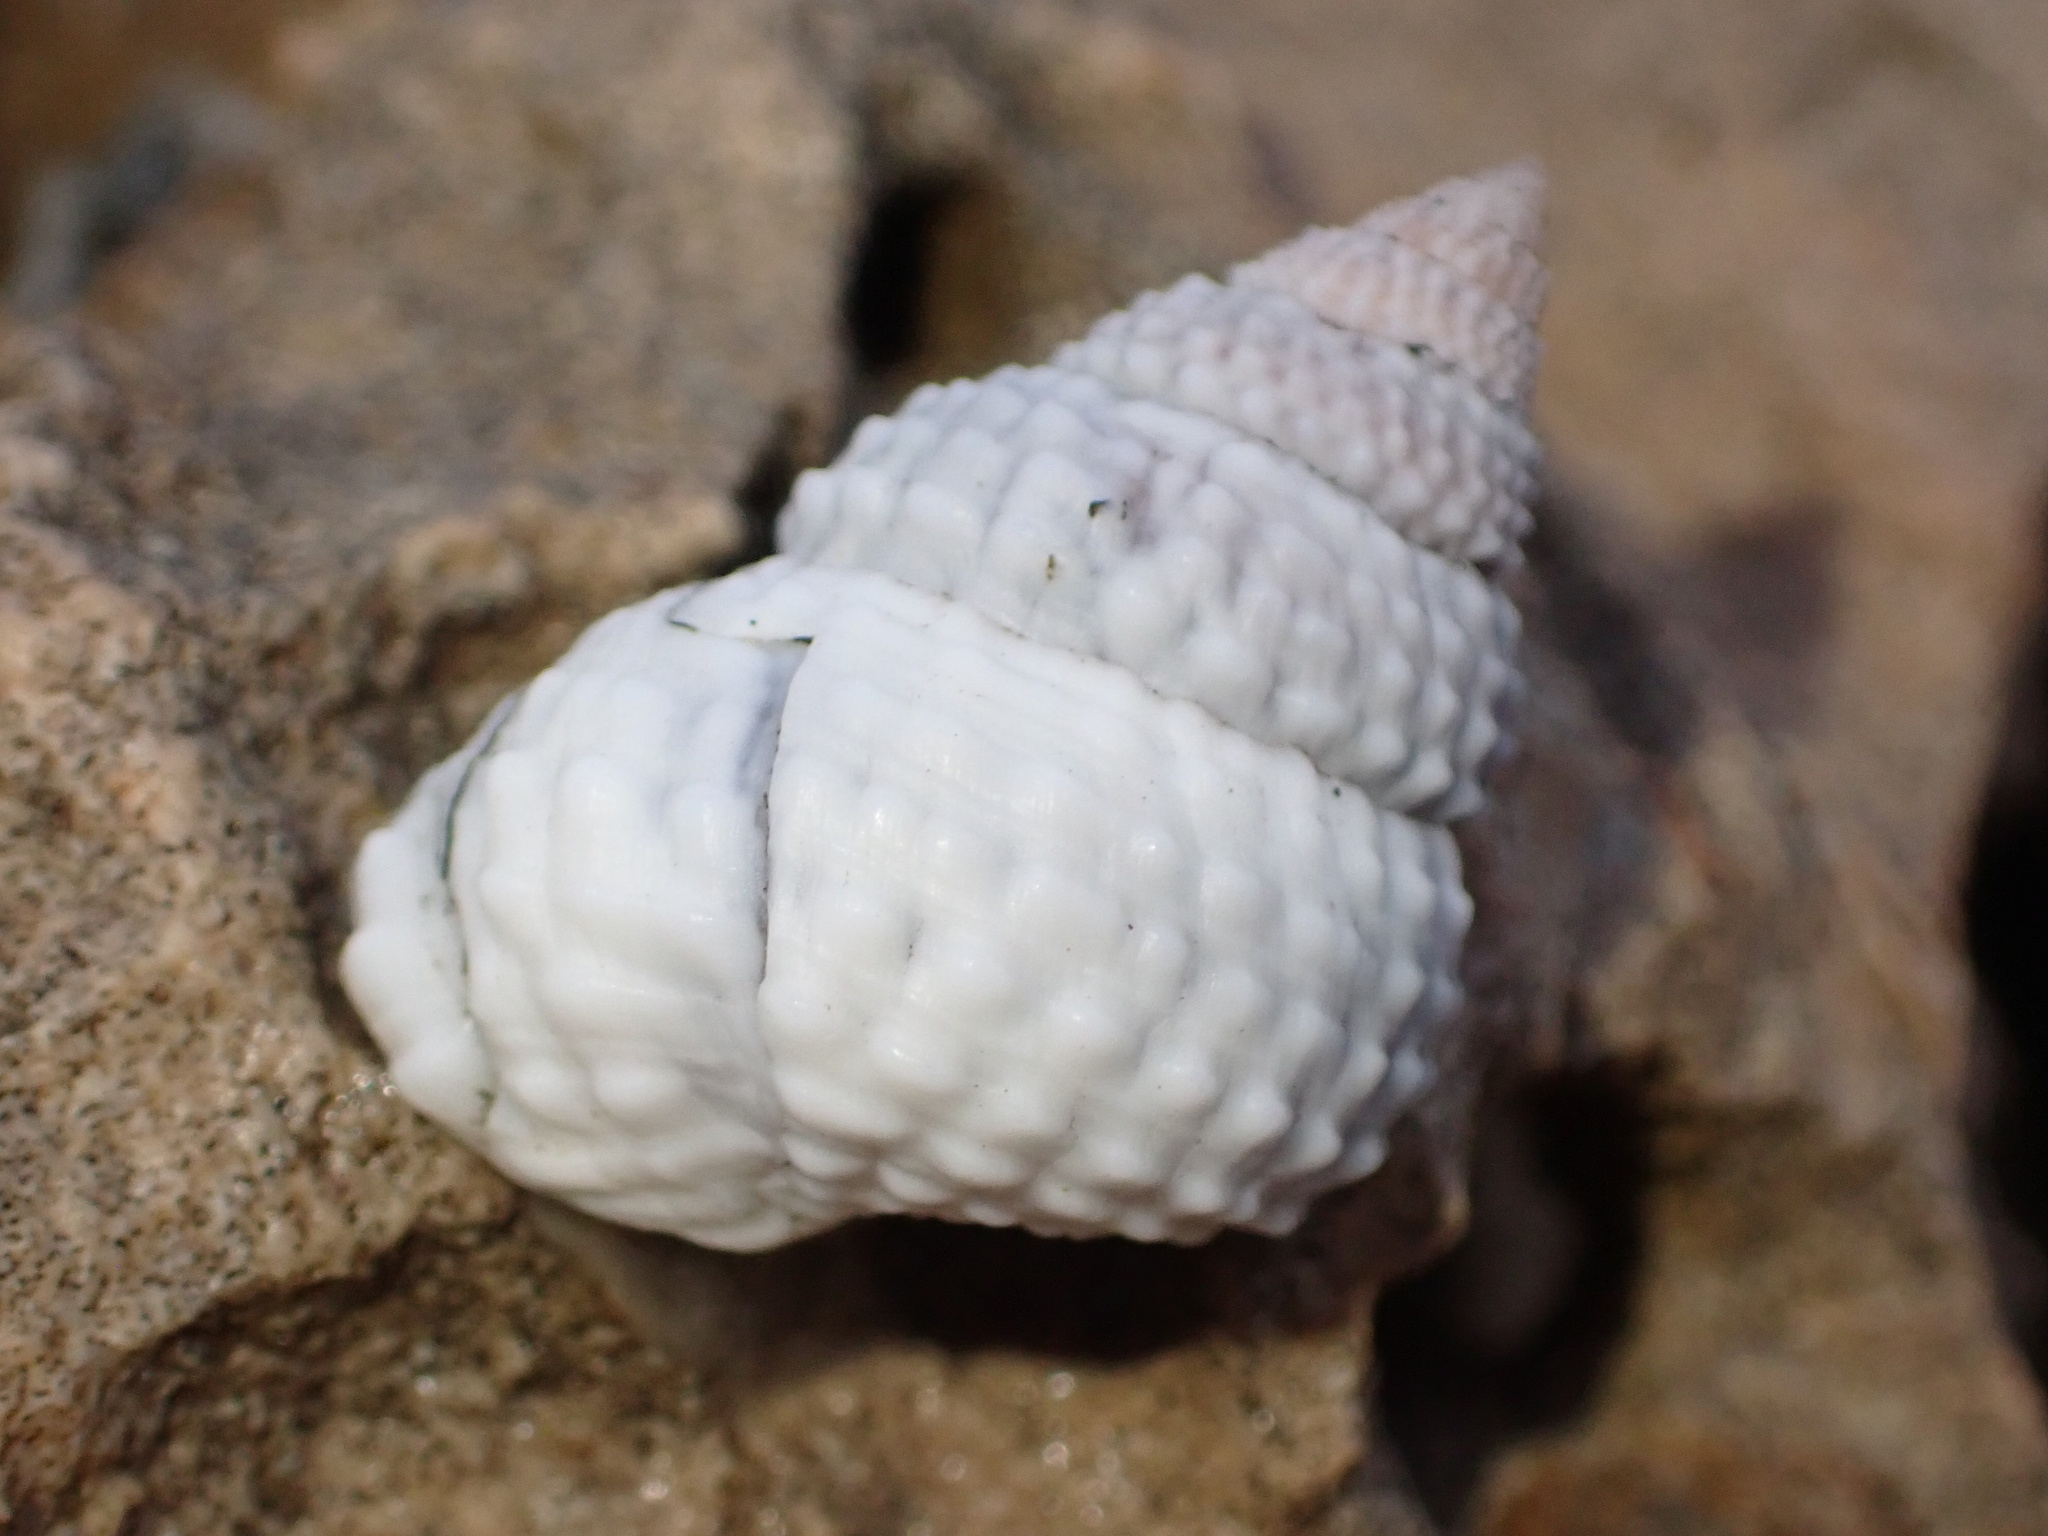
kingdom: Animalia
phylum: Mollusca
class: Gastropoda
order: Littorinimorpha
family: Littorinidae
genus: Cenchritis
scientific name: Cenchritis muricatus
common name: Beaded periwinkle
